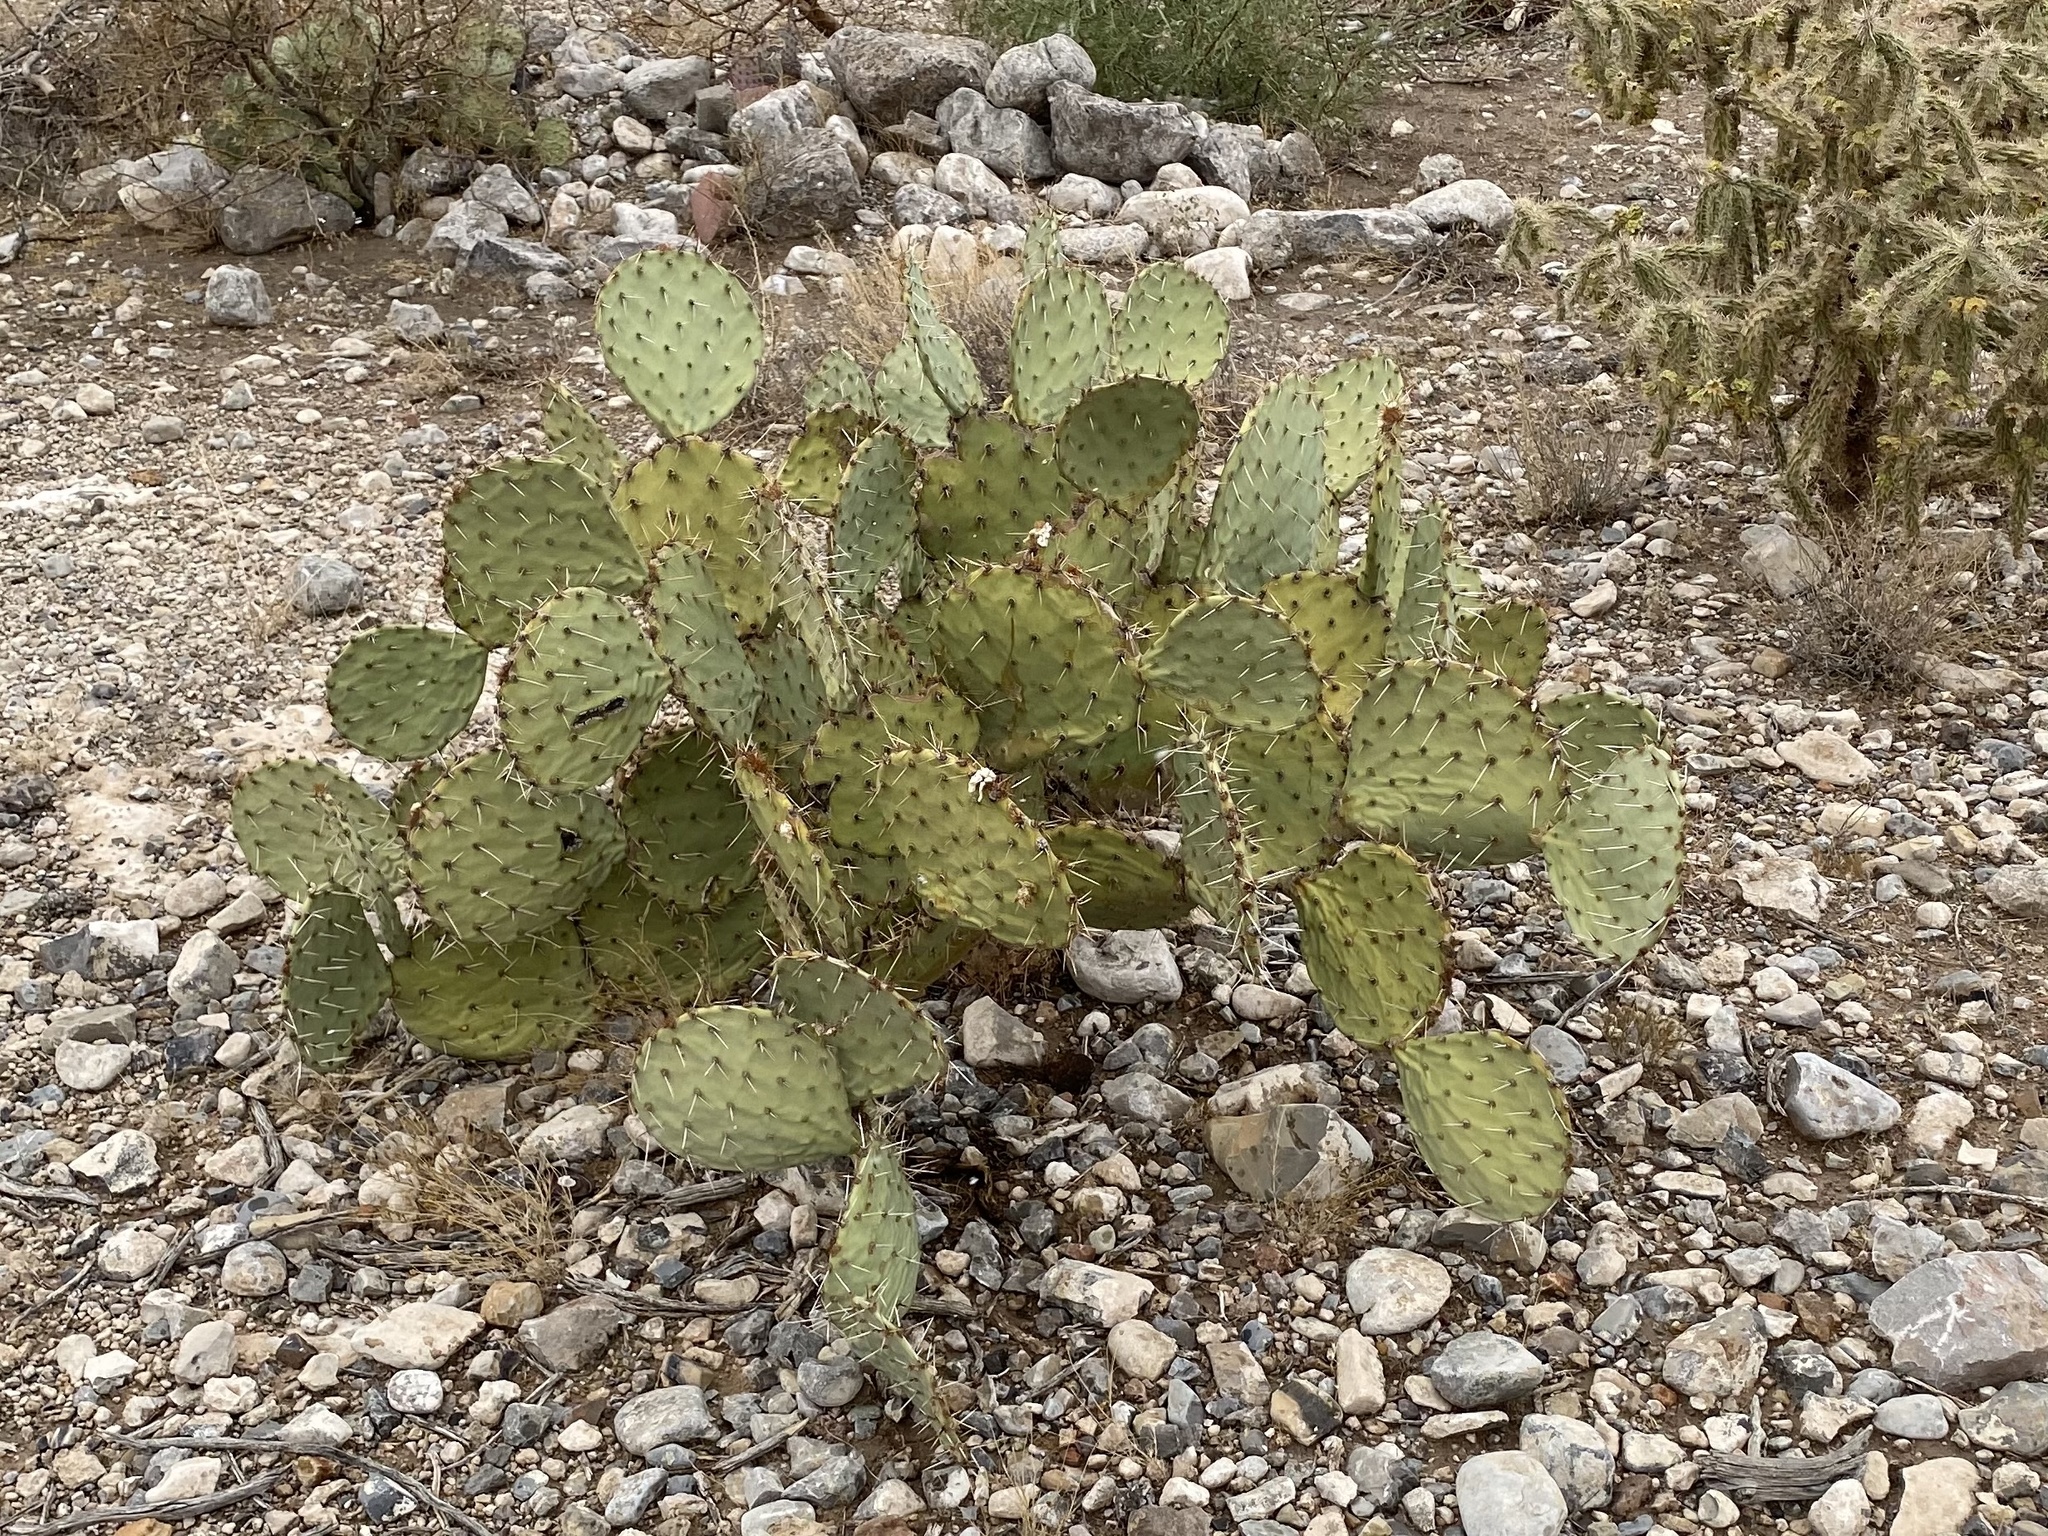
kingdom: Plantae
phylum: Tracheophyta
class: Magnoliopsida
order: Caryophyllales
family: Cactaceae
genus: Opuntia
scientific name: Opuntia engelmannii
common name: Cactus-apple
